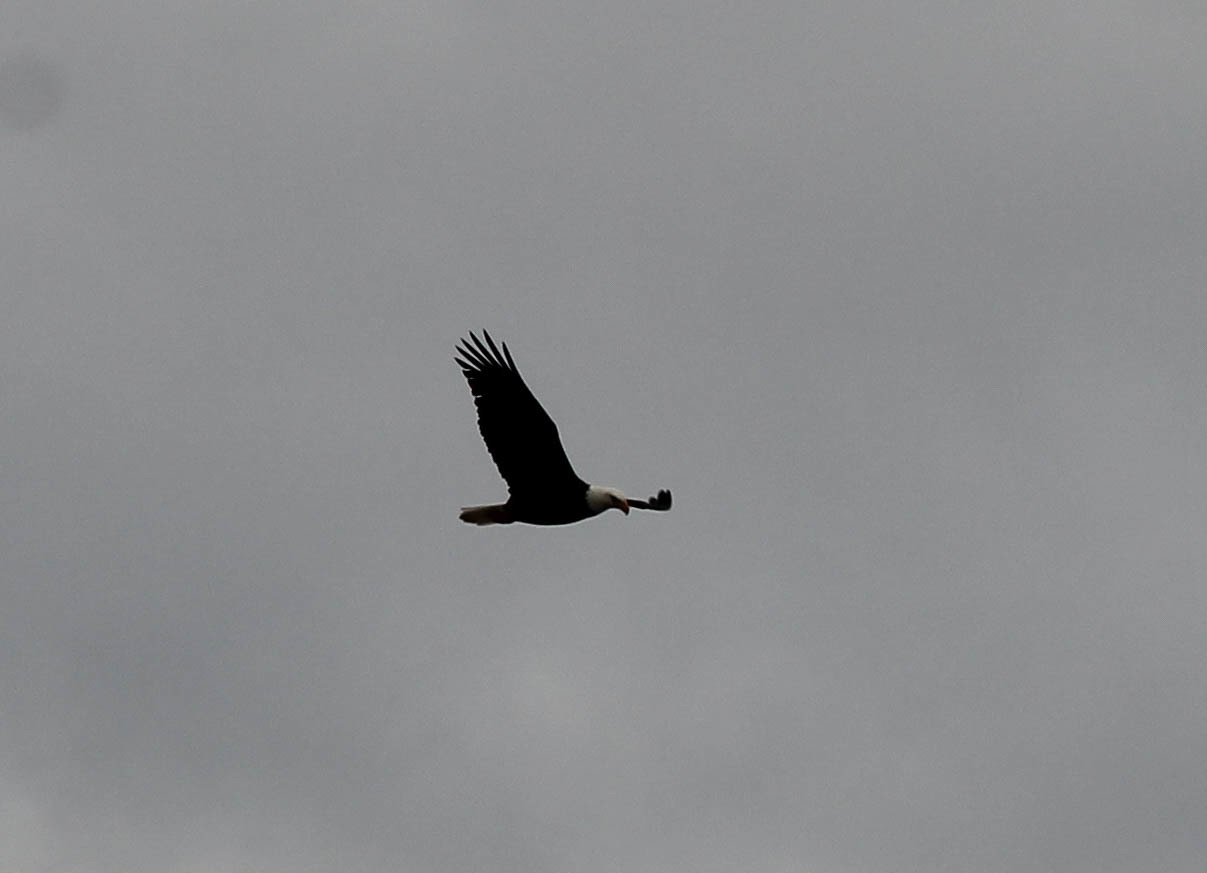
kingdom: Animalia
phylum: Chordata
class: Aves
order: Accipitriformes
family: Accipitridae
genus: Haliaeetus
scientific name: Haliaeetus leucocephalus
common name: Bald eagle
